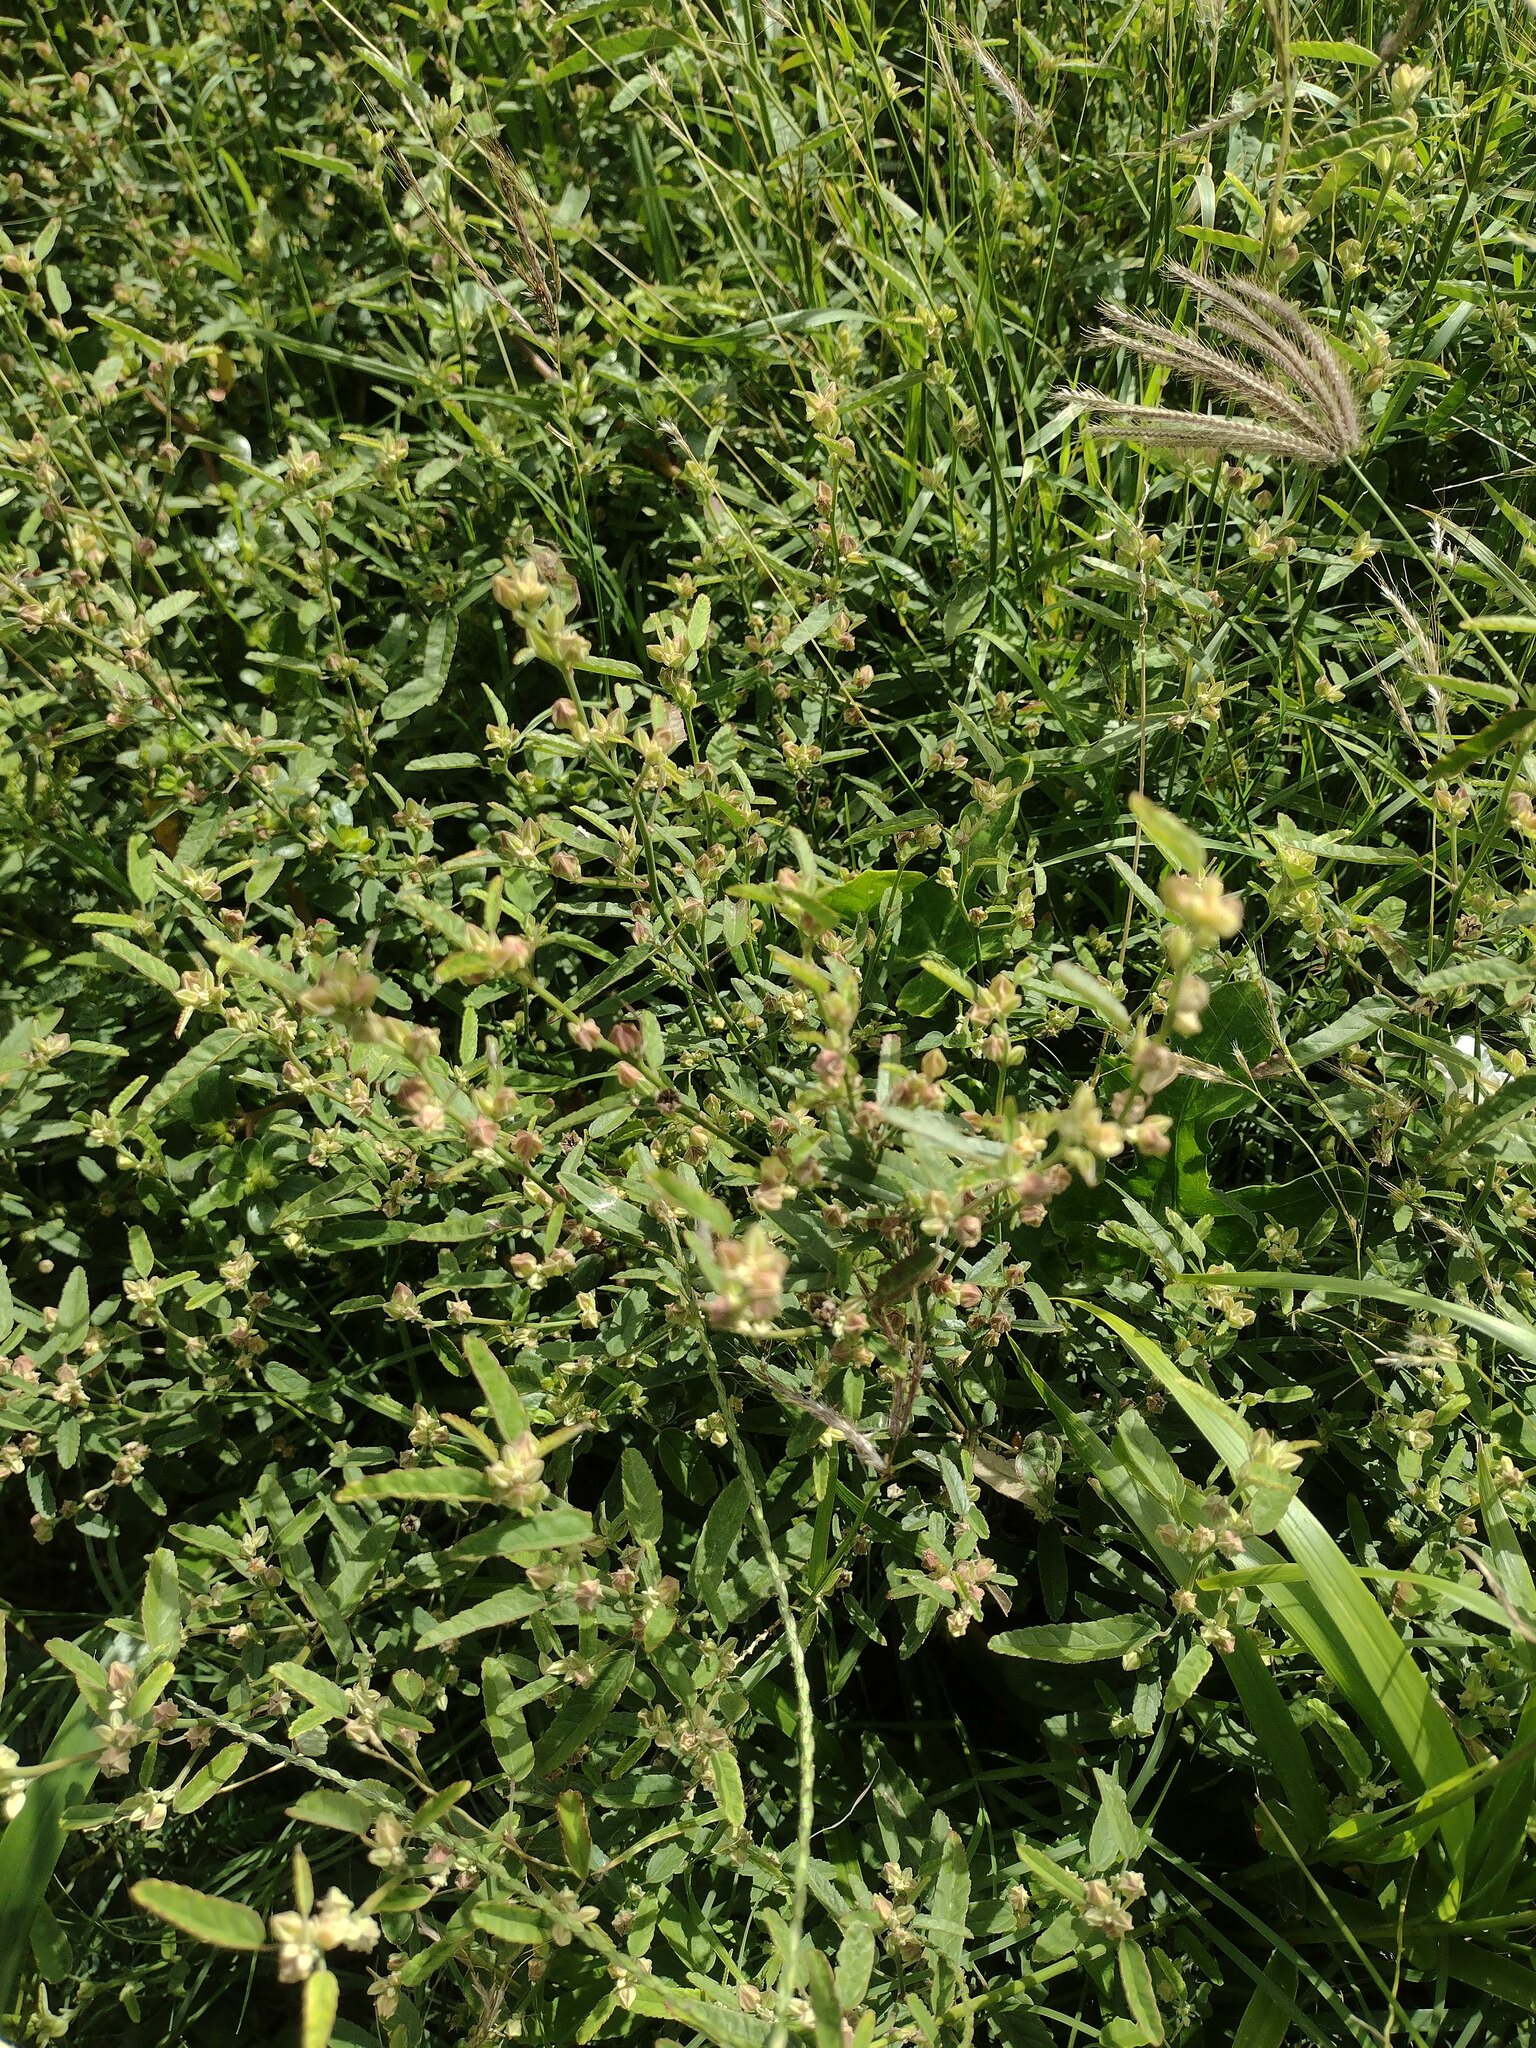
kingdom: Plantae
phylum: Tracheophyta
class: Magnoliopsida
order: Malvales
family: Malvaceae
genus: Sida
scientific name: Sida spinosa
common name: Prickly fanpetals
